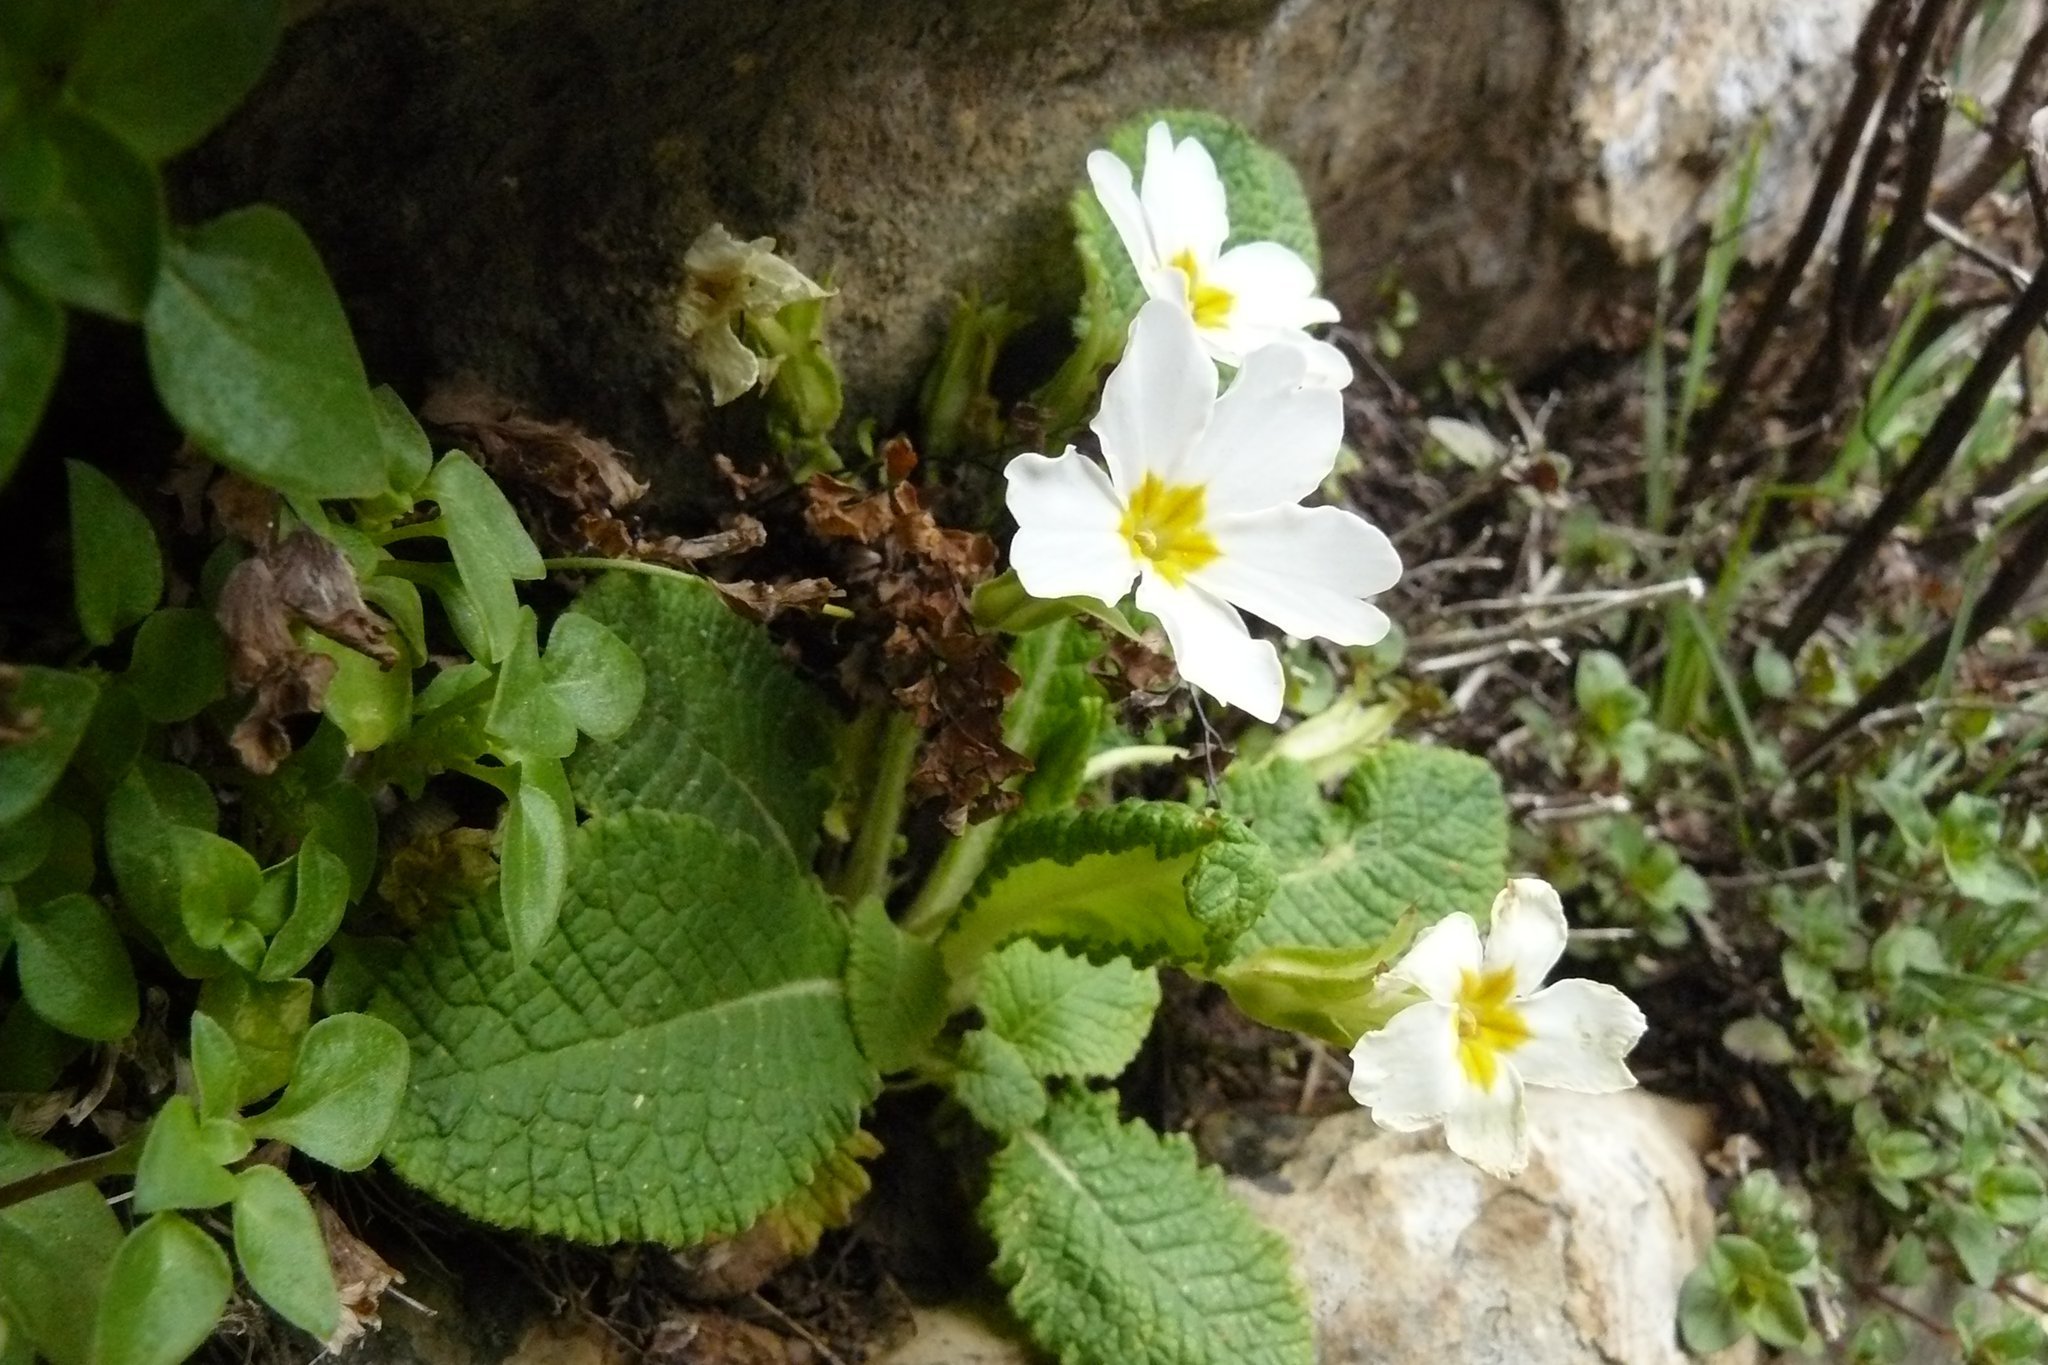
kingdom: Plantae
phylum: Tracheophyta
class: Magnoliopsida
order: Ericales
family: Primulaceae
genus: Primula
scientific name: Primula vulgaris
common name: Primrose
